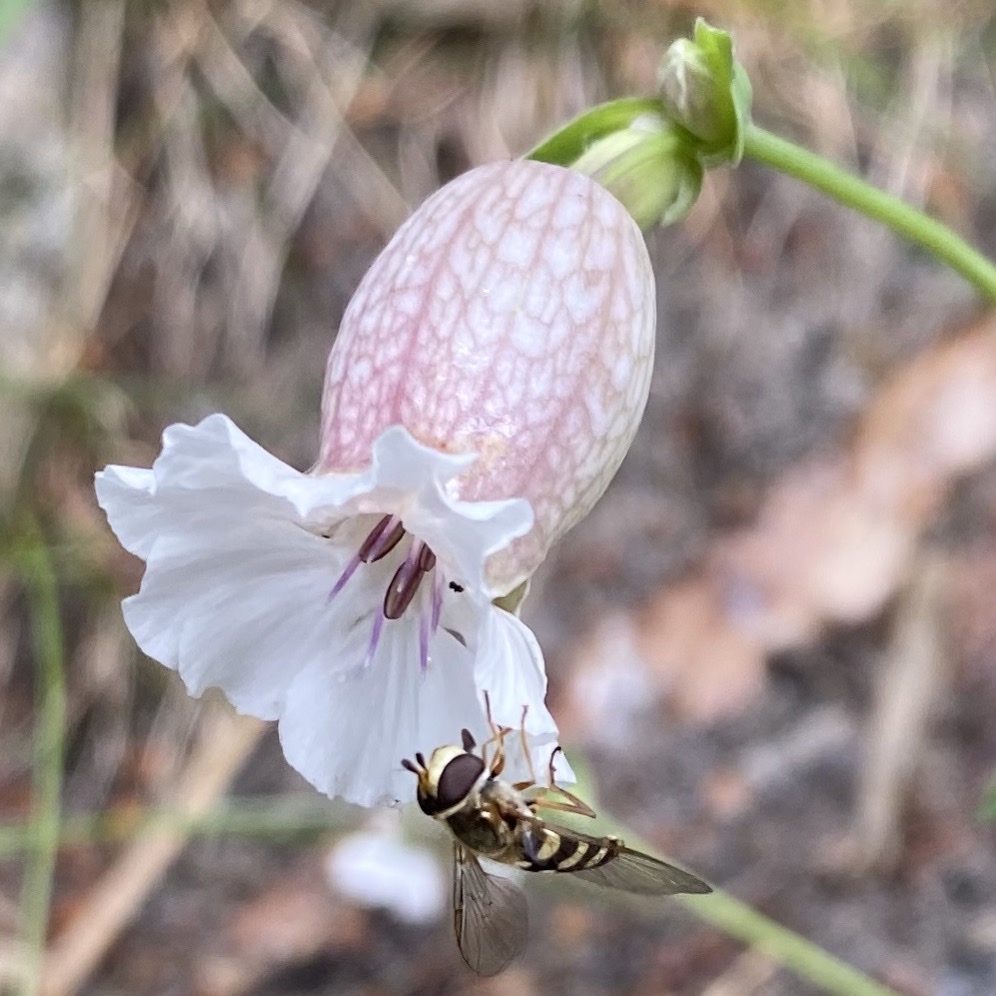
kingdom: Plantae
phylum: Tracheophyta
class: Magnoliopsida
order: Caryophyllales
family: Caryophyllaceae
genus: Silene
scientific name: Silene uniflora
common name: Sea campion
